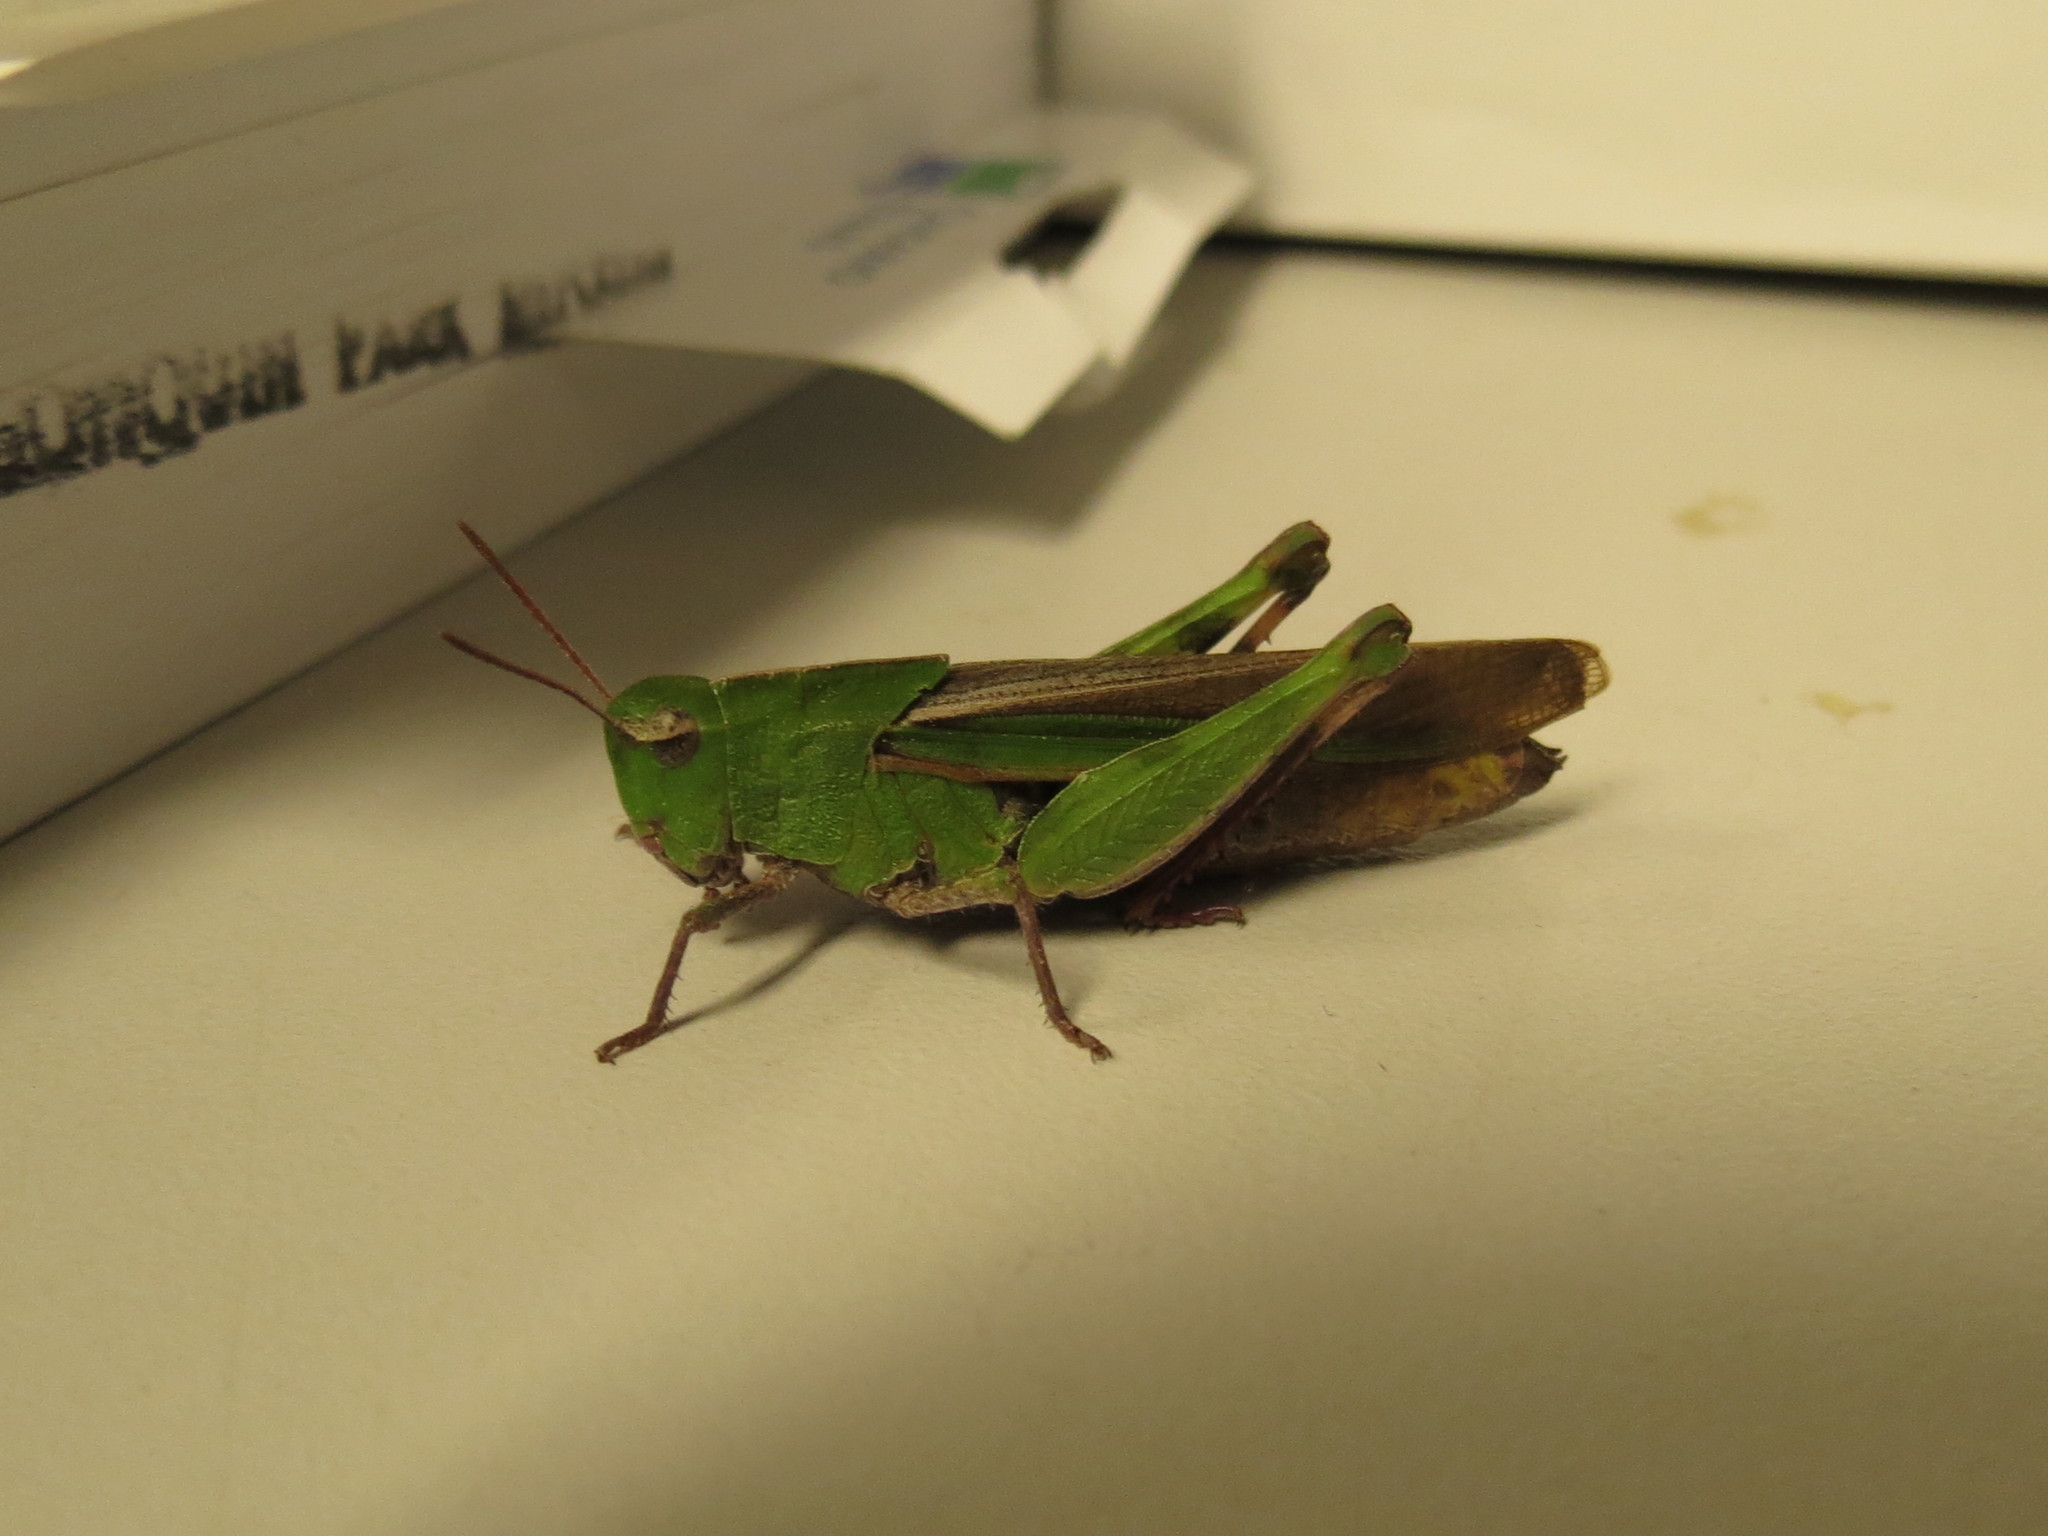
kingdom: Animalia
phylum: Arthropoda
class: Insecta
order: Orthoptera
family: Acrididae
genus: Chortophaga
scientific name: Chortophaga viridifasciata
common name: Green-striped grasshopper
